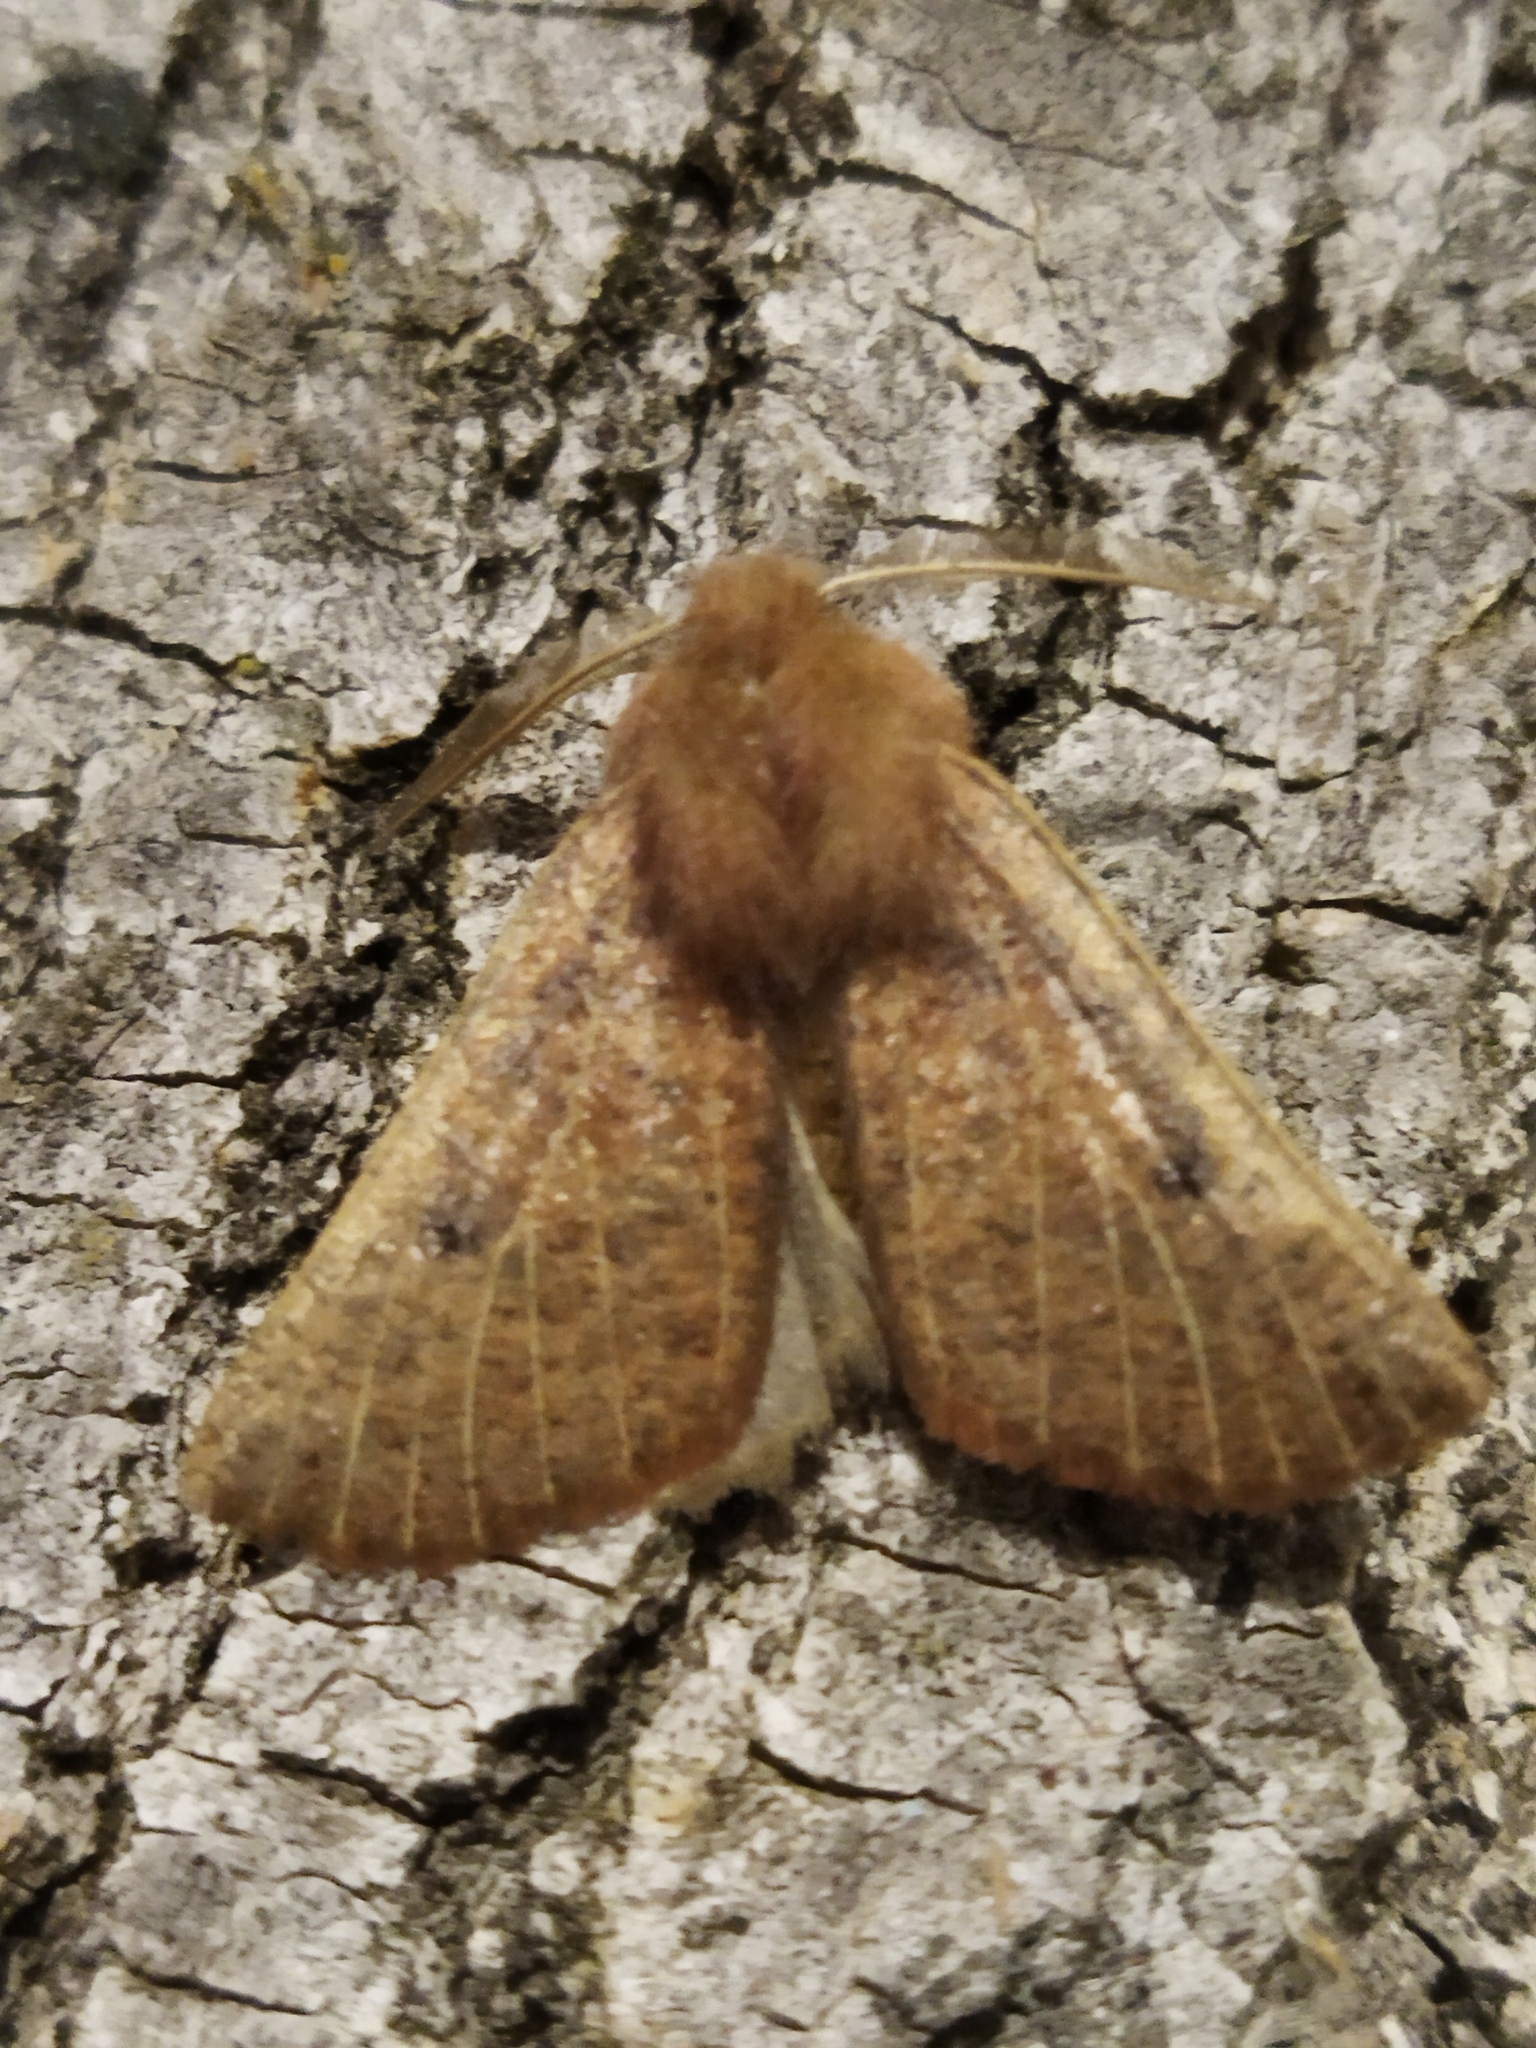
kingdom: Animalia
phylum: Arthropoda
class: Insecta
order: Lepidoptera
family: Geometridae
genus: Dasycorsa
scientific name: Dasycorsa modesta
